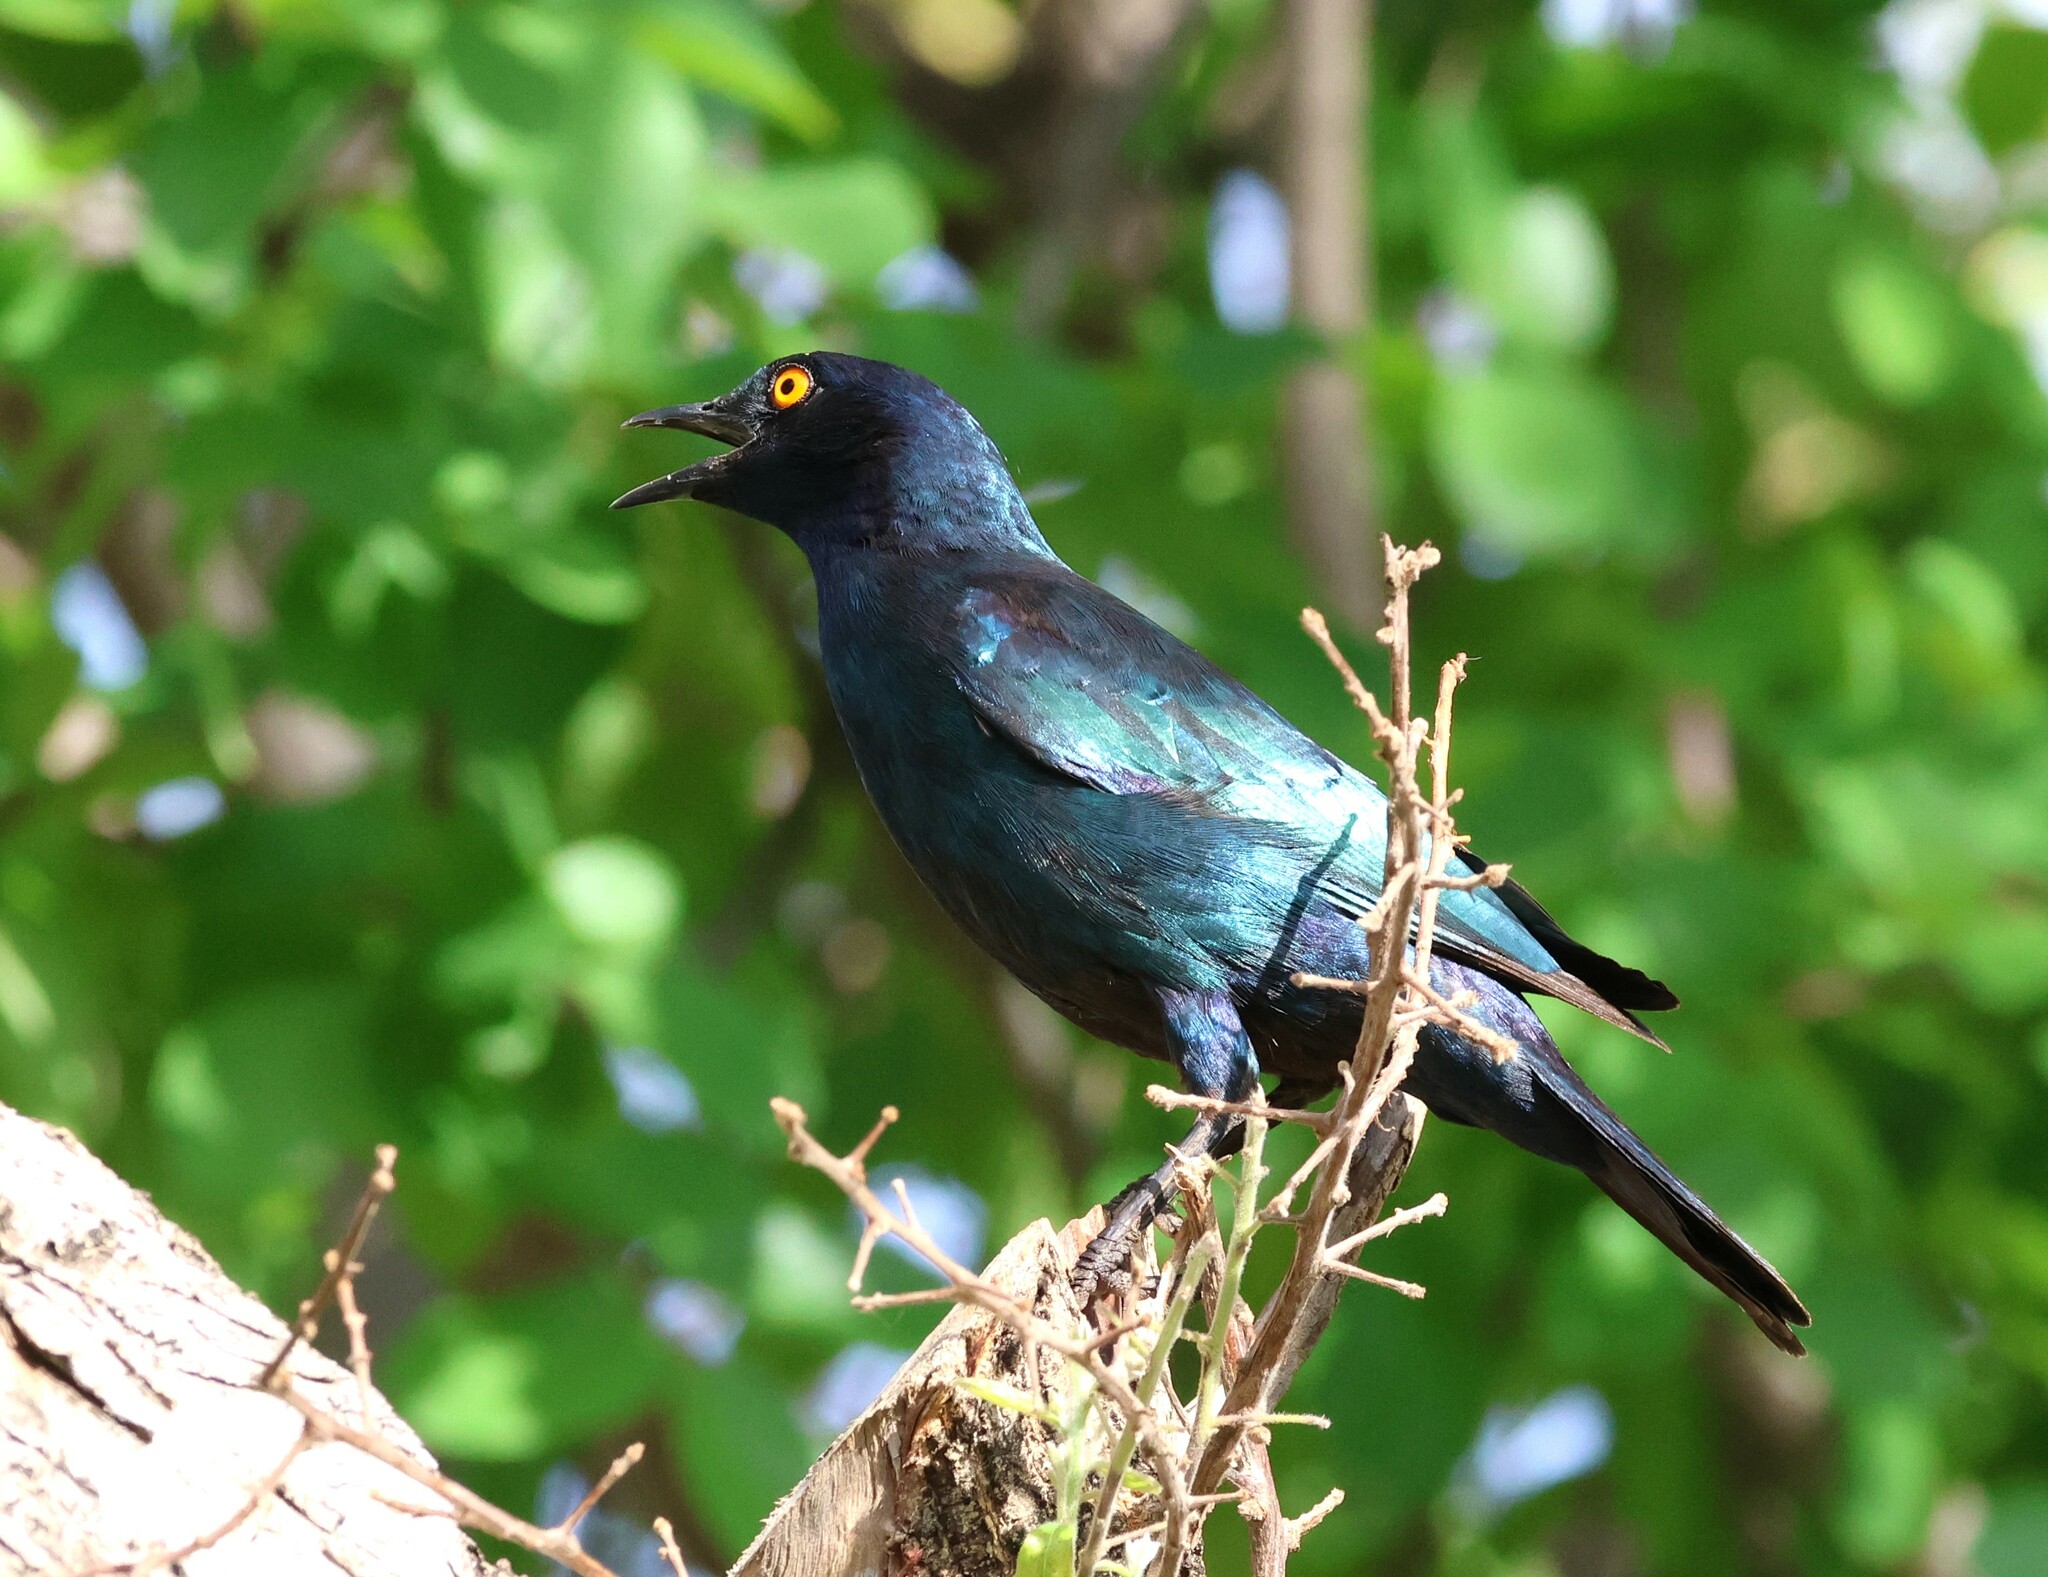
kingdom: Animalia
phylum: Chordata
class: Aves
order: Passeriformes
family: Sturnidae
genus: Lamprotornis
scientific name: Lamprotornis nitens
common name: Cape starling
